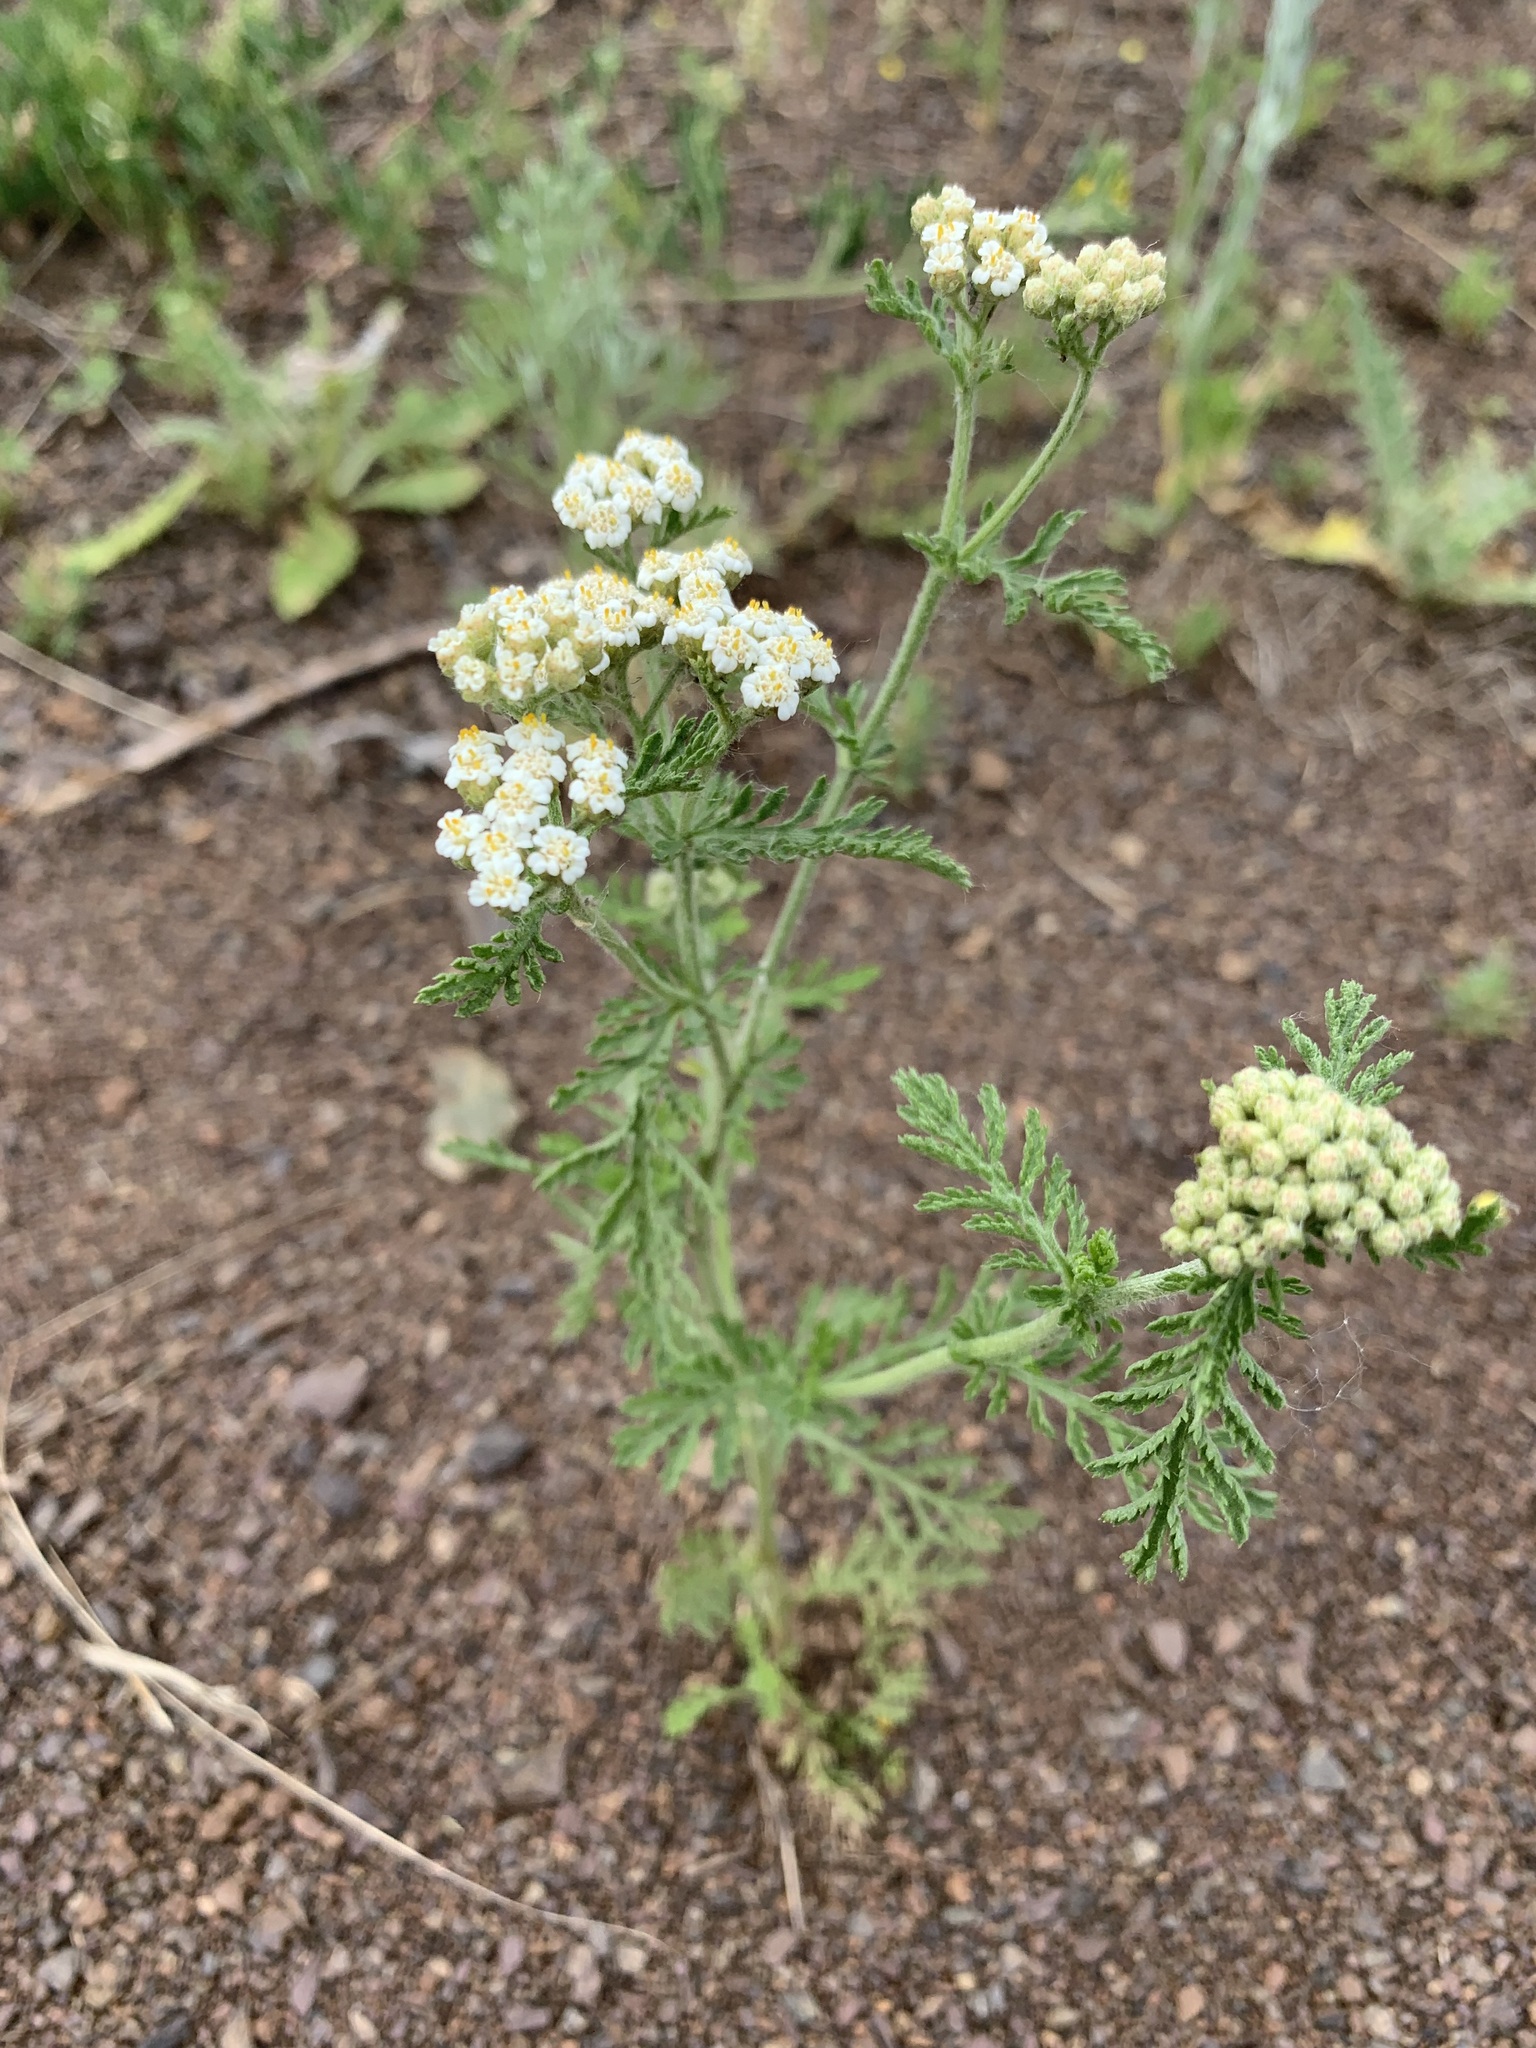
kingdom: Plantae
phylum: Tracheophyta
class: Magnoliopsida
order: Asterales
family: Asteraceae
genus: Achillea
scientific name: Achillea nobilis
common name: Noble yarrow
